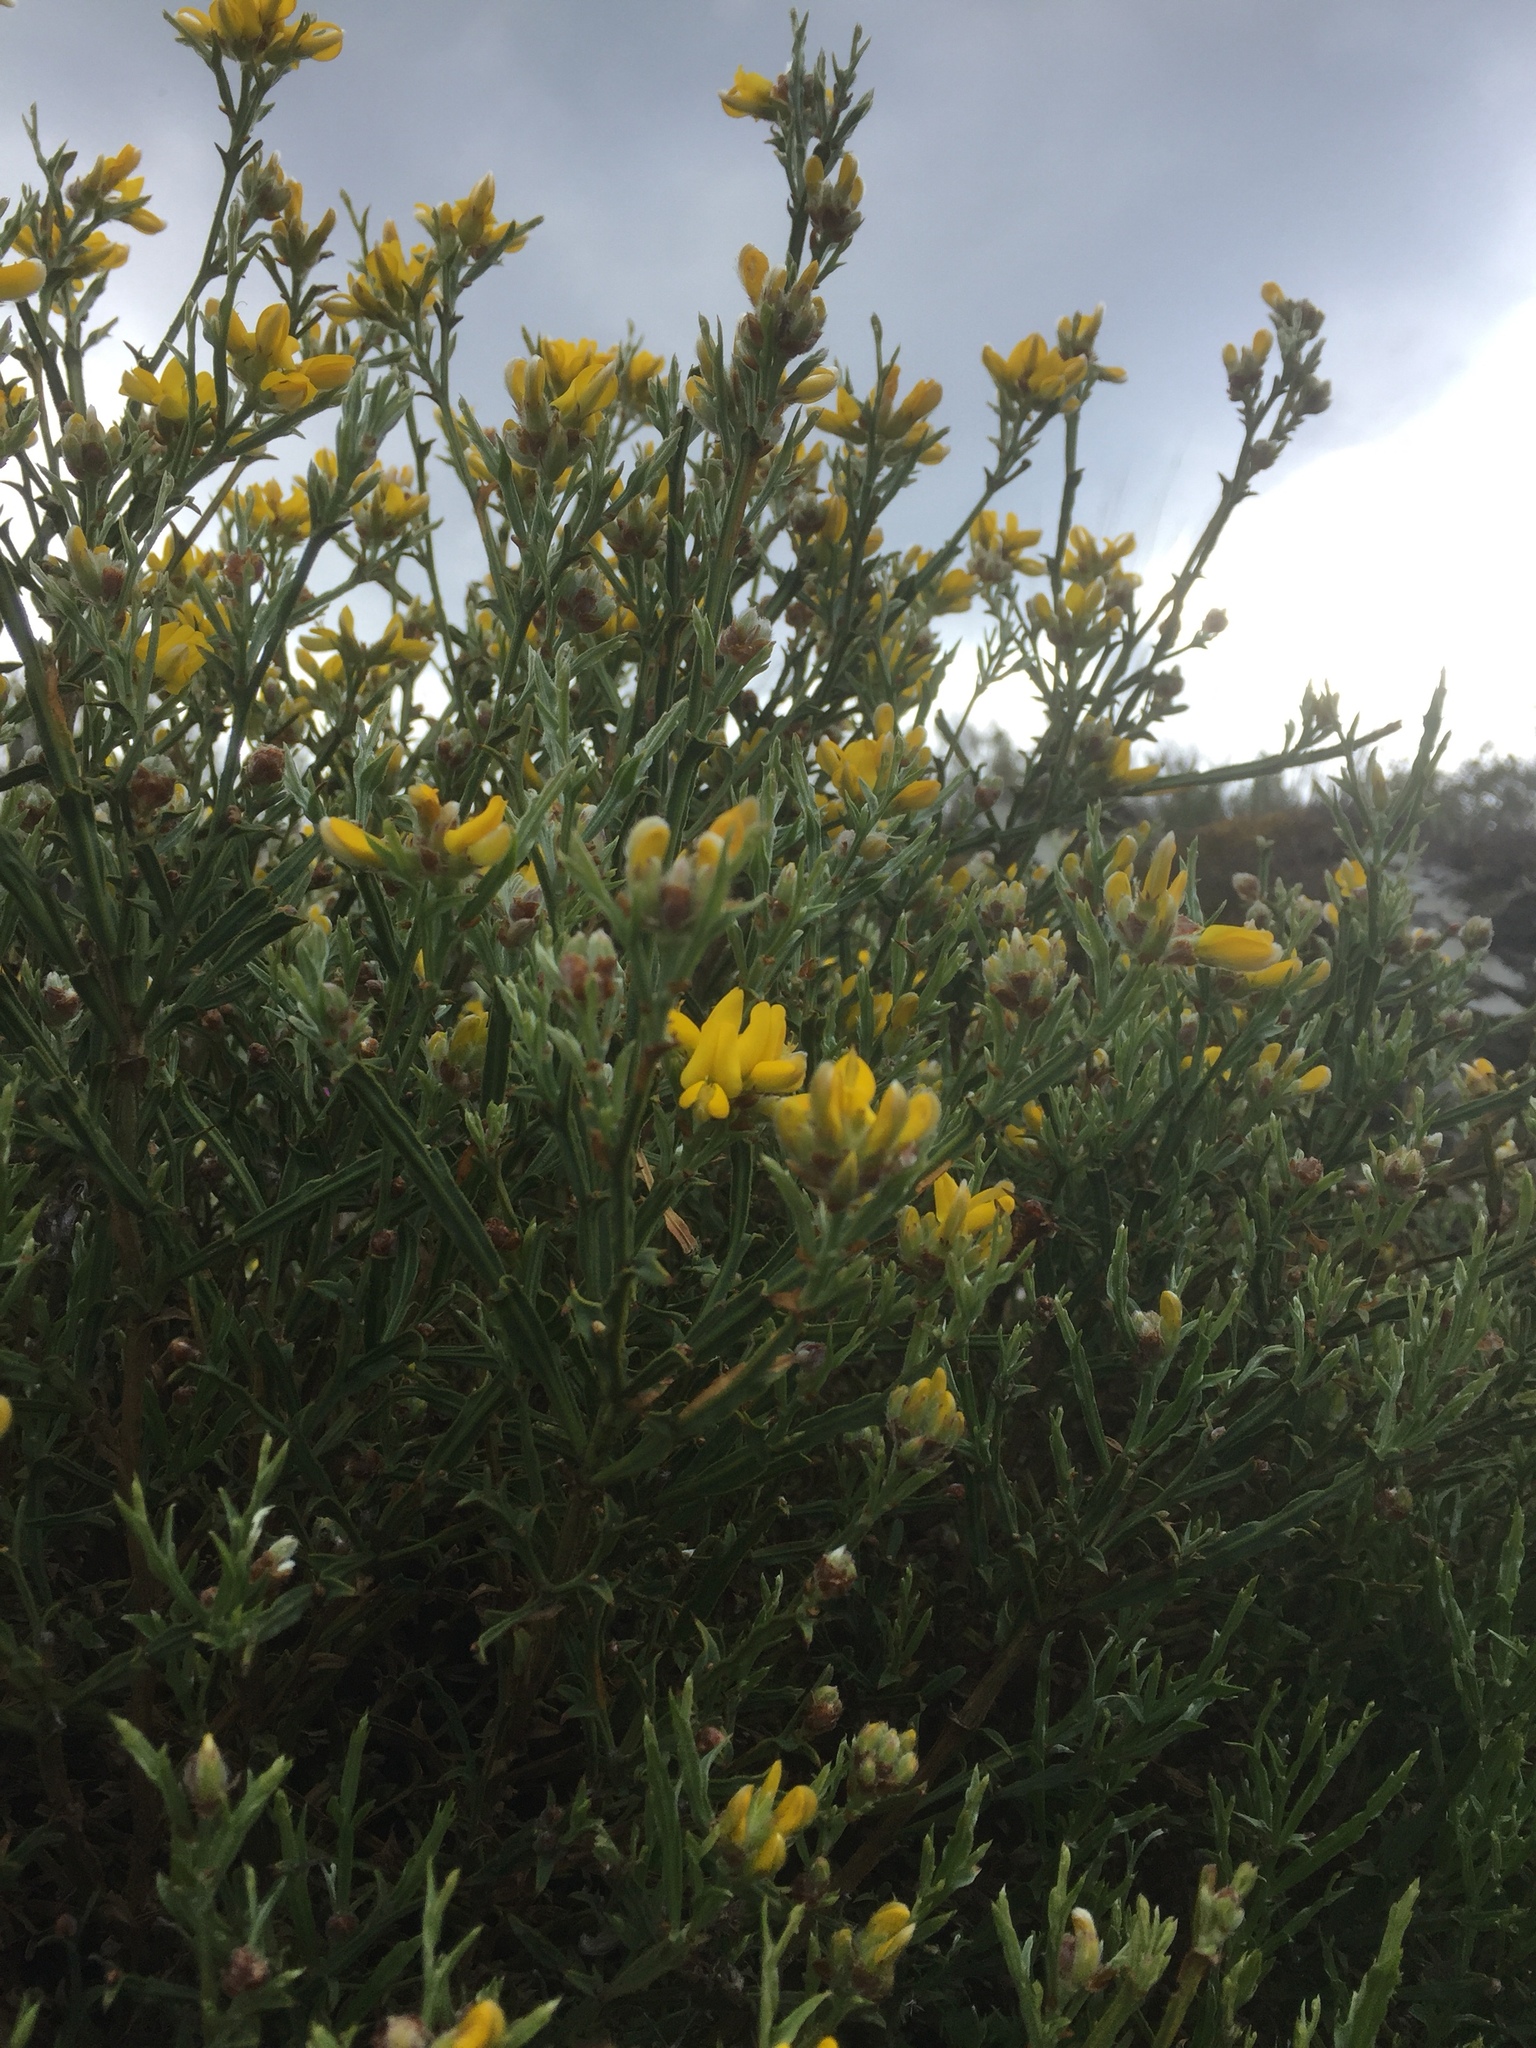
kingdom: Plantae
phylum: Tracheophyta
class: Magnoliopsida
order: Fabales
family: Fabaceae
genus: Genista
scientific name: Genista tridentata
